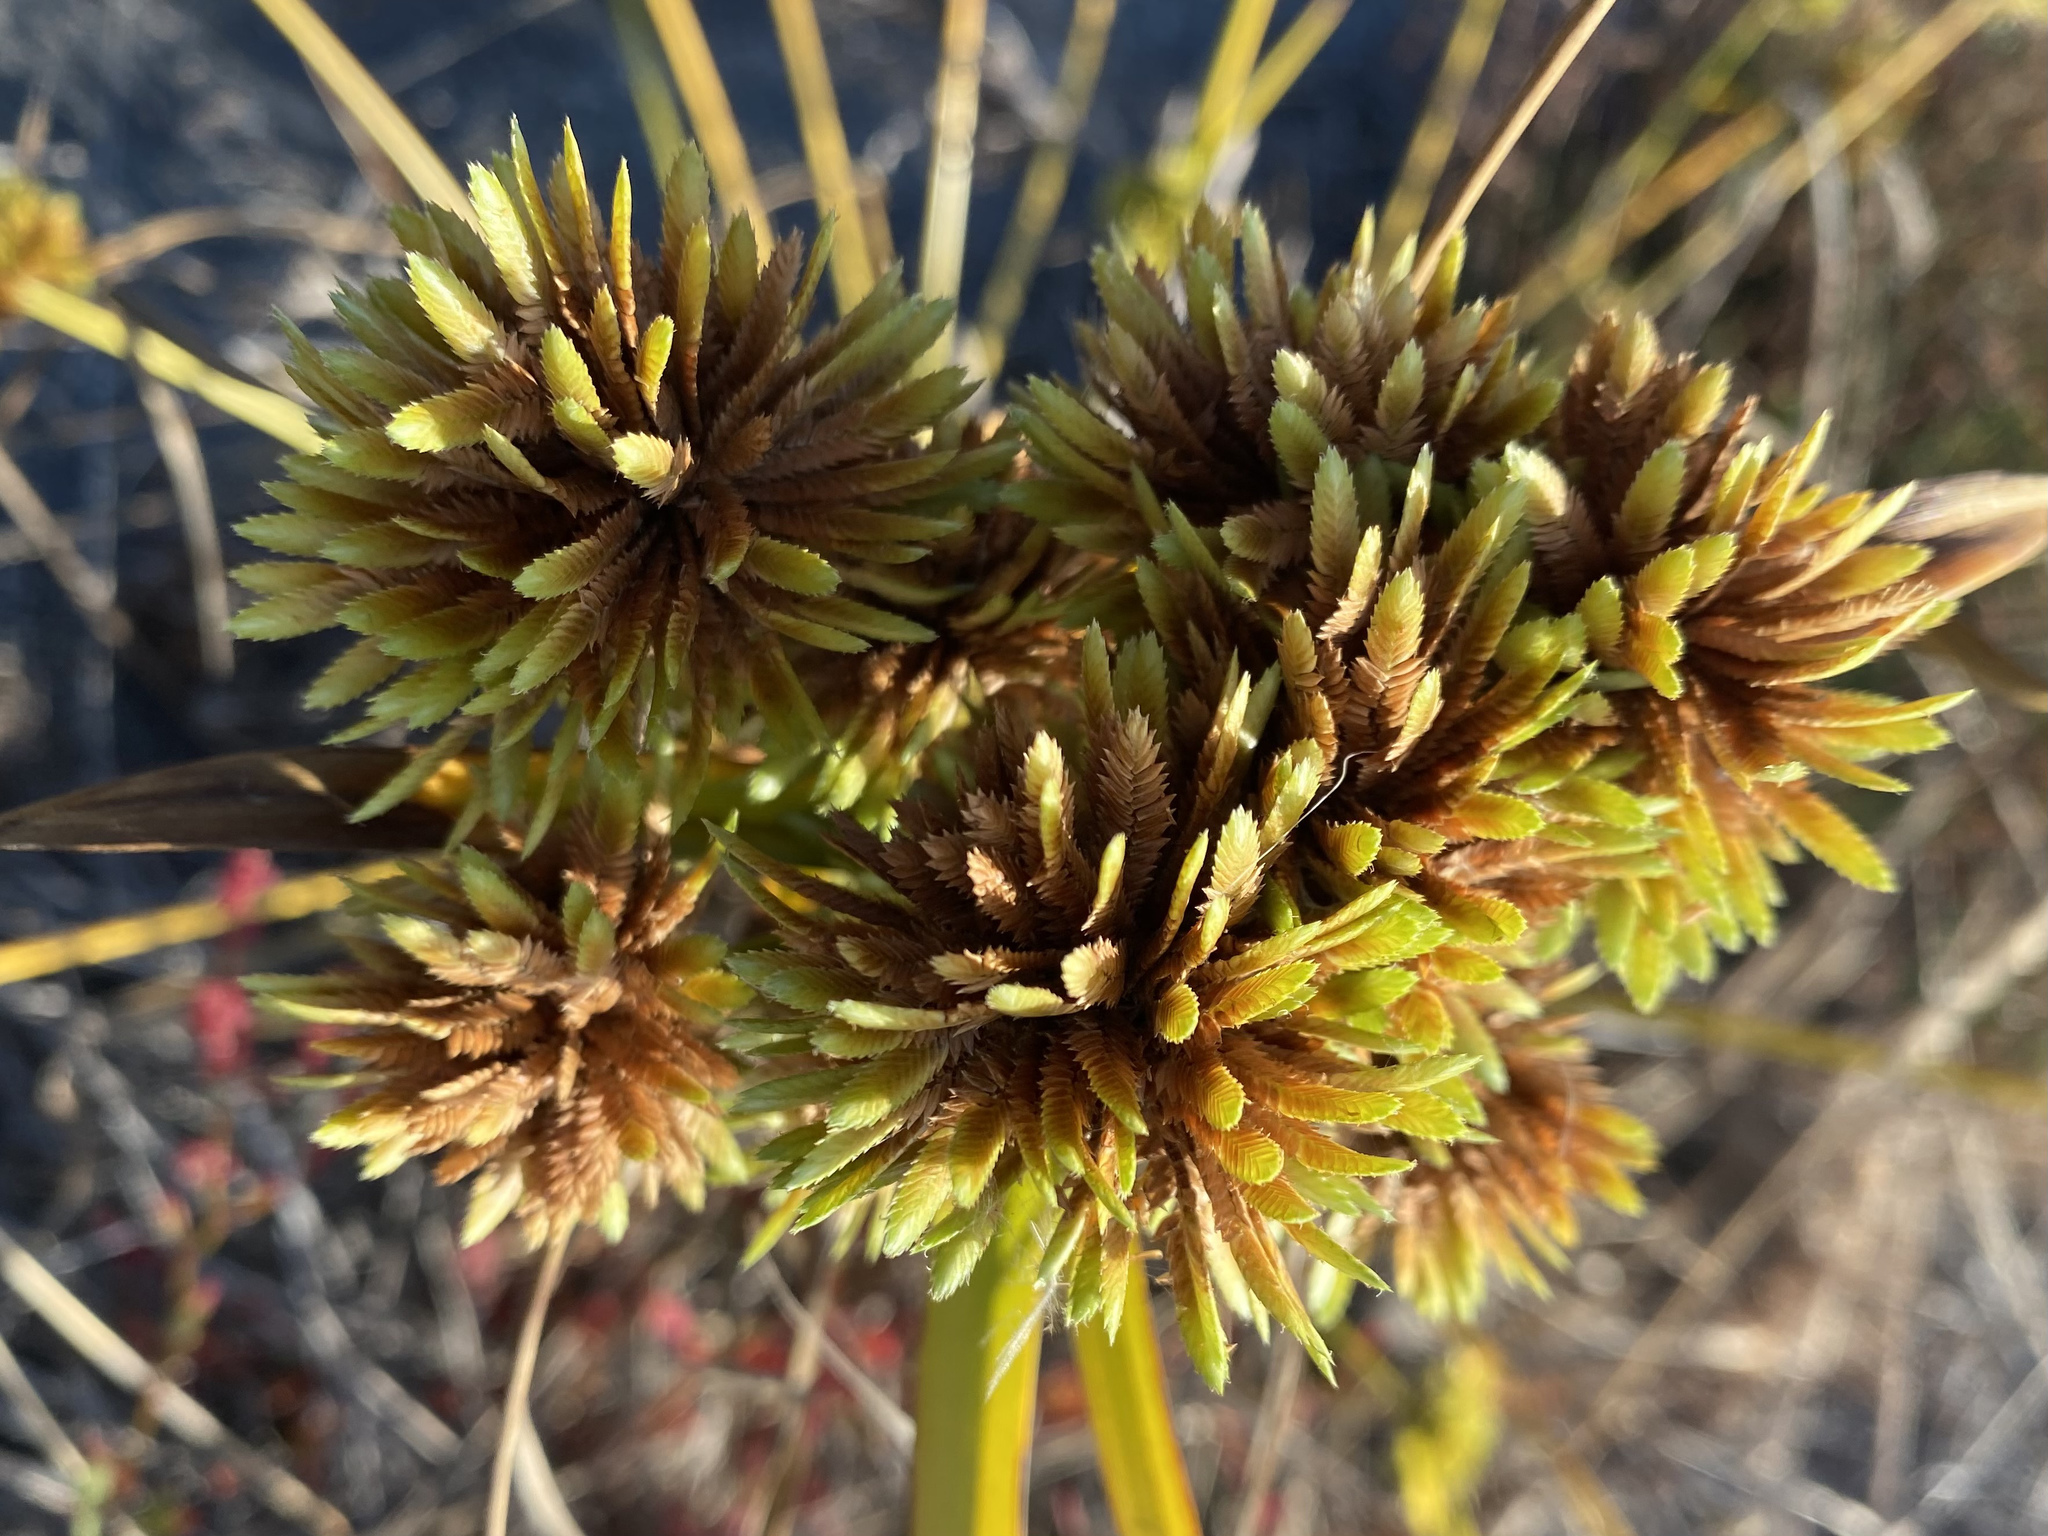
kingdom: Plantae
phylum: Tracheophyta
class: Liliopsida
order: Poales
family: Cyperaceae
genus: Cyperus
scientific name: Cyperus eragrostis
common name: Tall flatsedge
